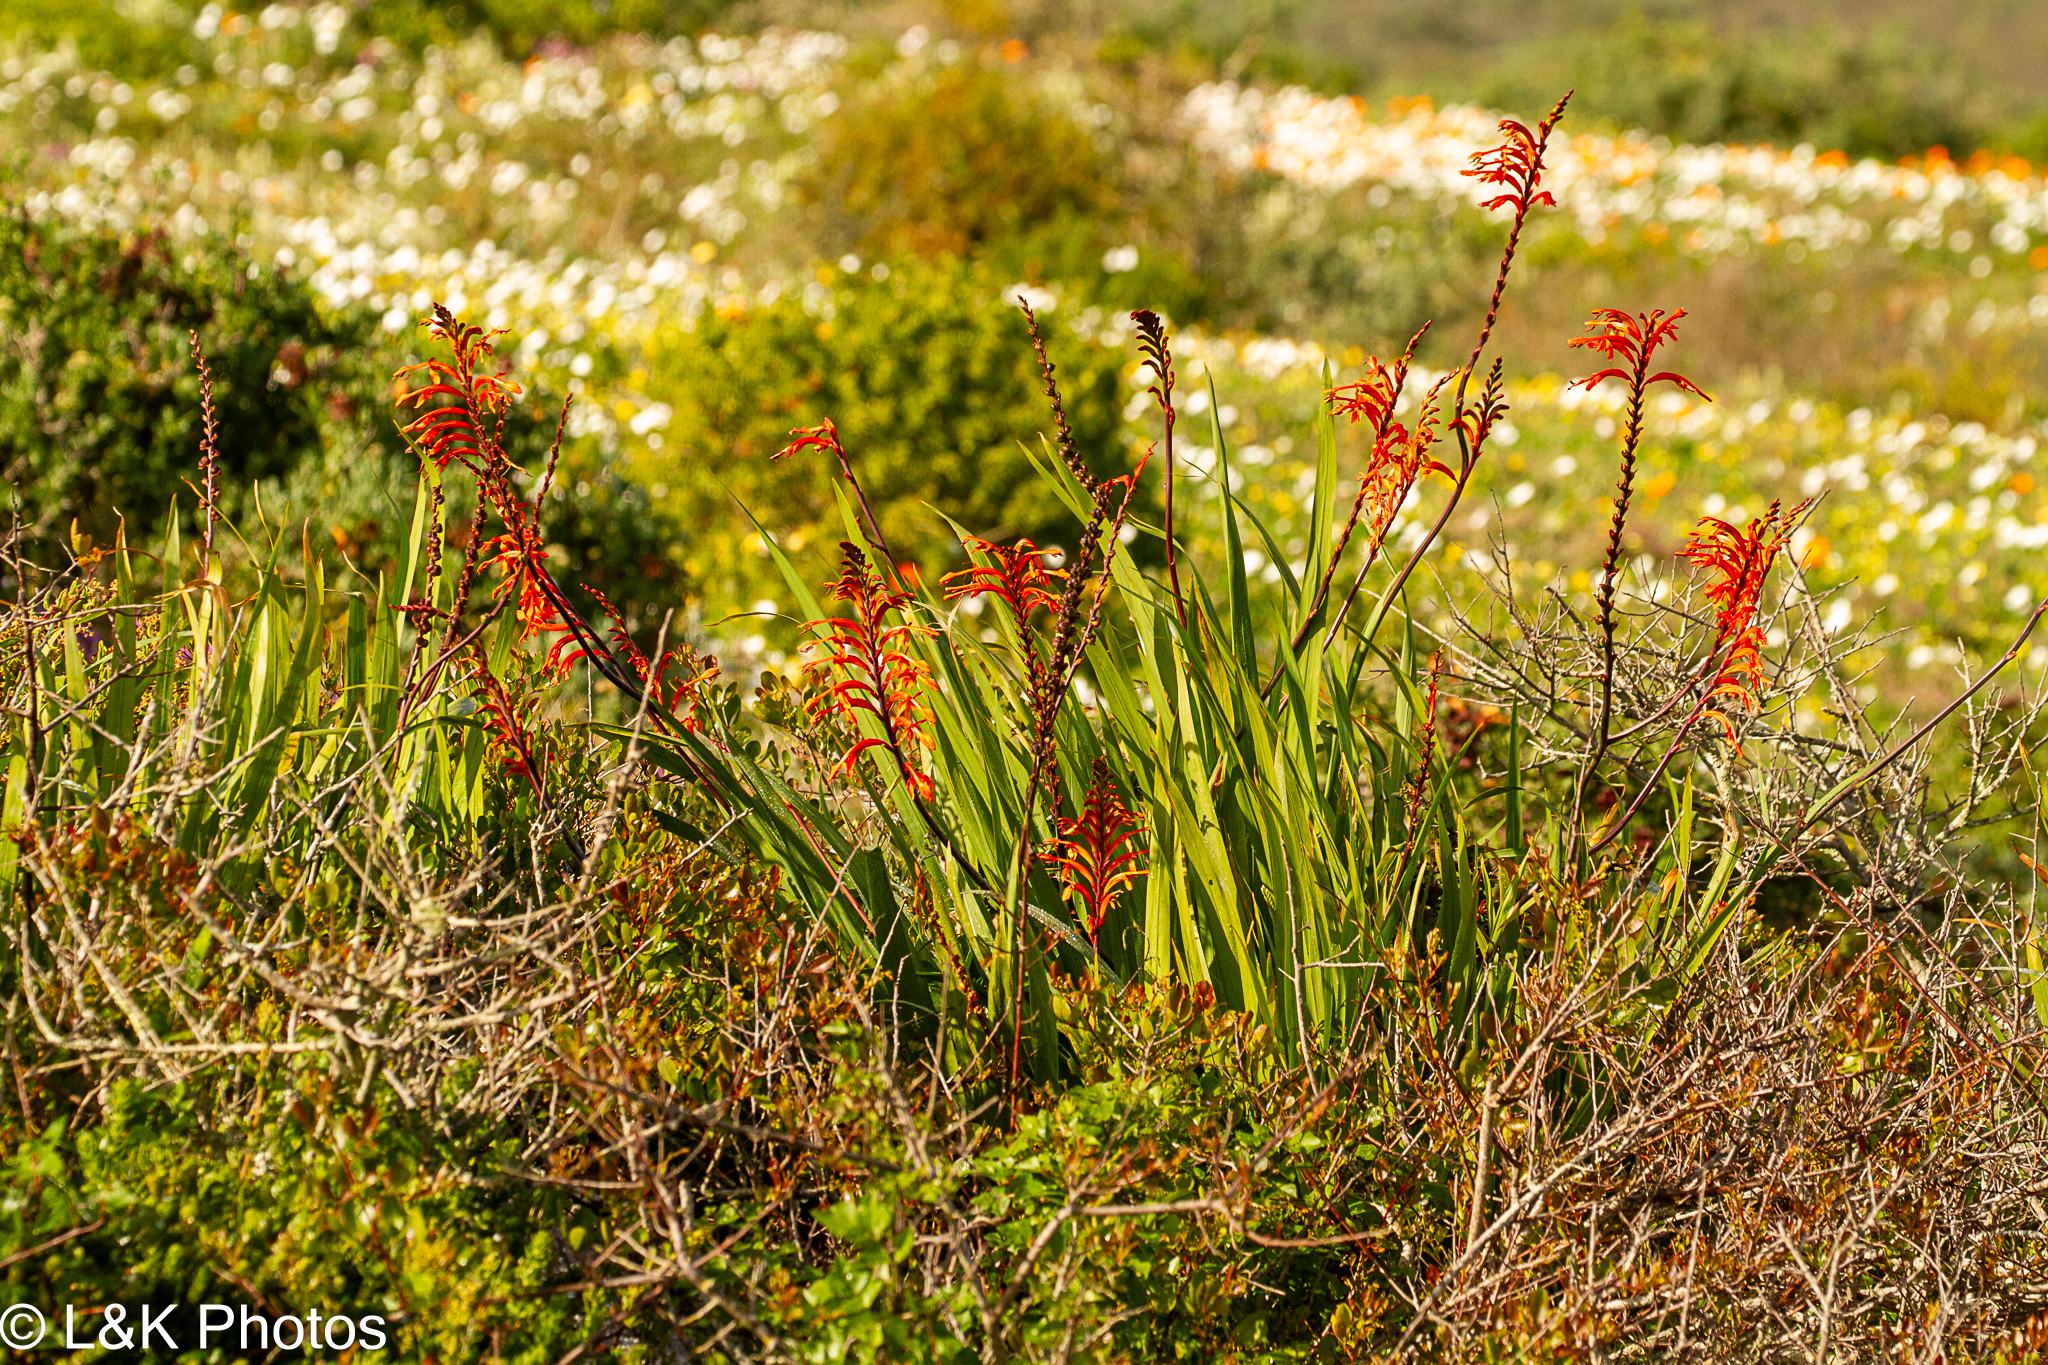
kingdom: Plantae
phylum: Tracheophyta
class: Liliopsida
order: Asparagales
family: Iridaceae
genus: Chasmanthe
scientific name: Chasmanthe floribunda
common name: African cornflag
